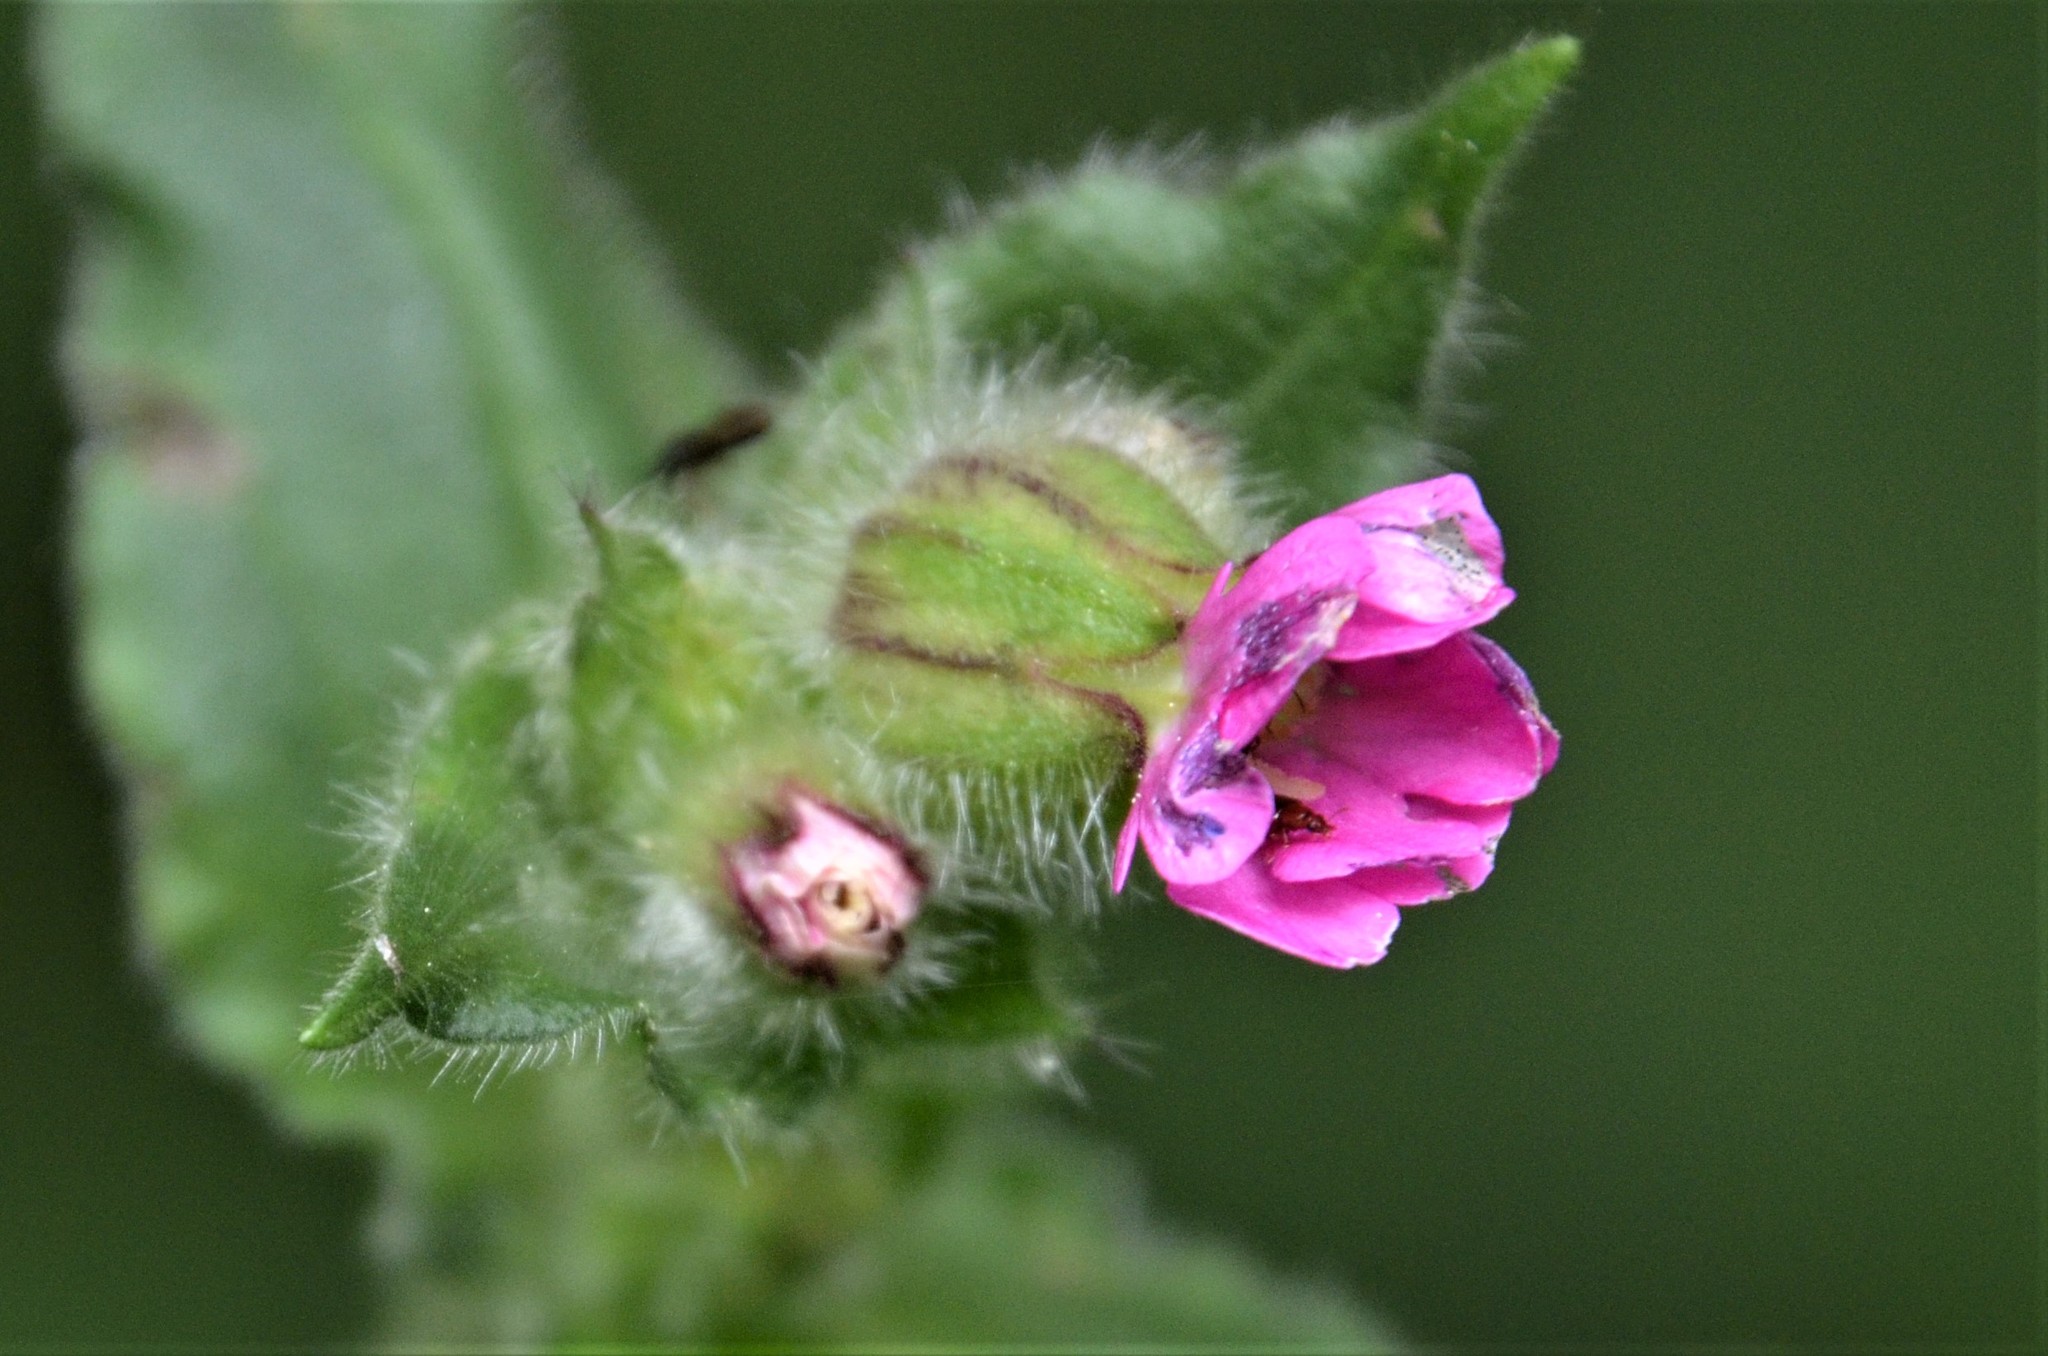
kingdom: Plantae
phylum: Tracheophyta
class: Magnoliopsida
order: Caryophyllales
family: Caryophyllaceae
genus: Silene
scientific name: Silene dioica
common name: Red campion
